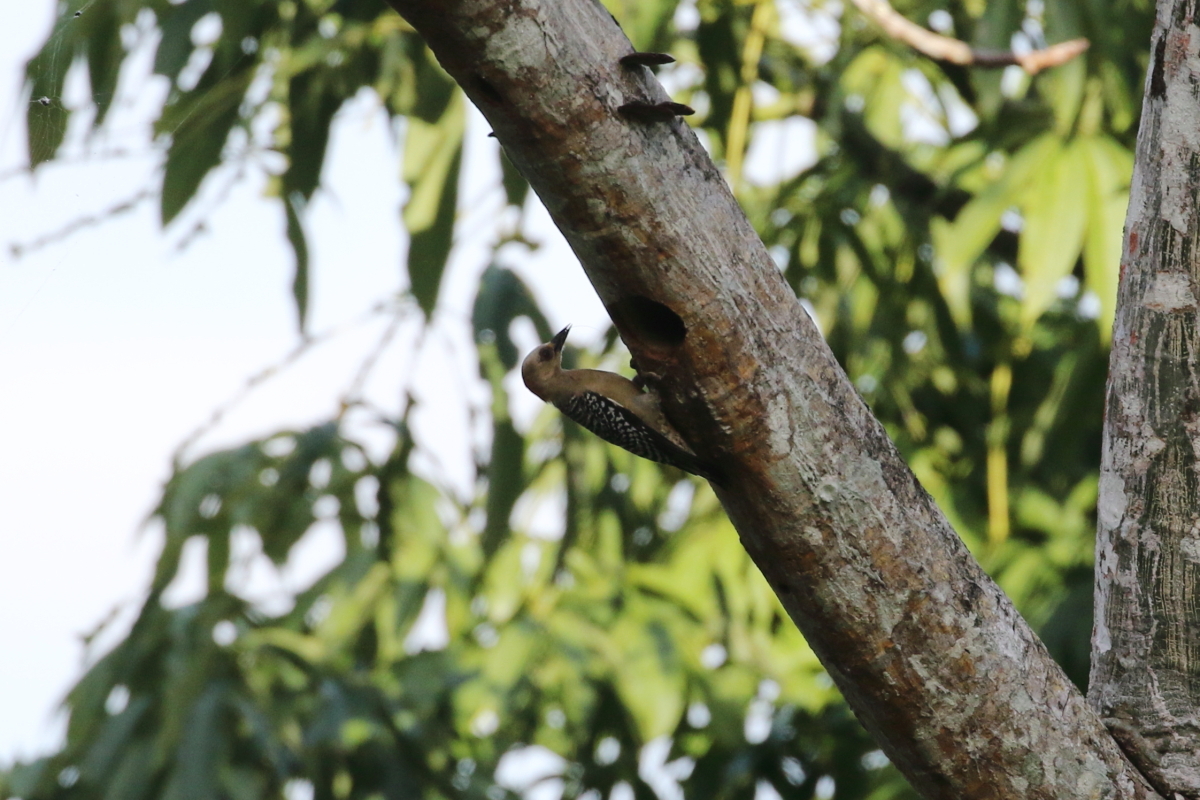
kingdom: Animalia
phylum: Chordata
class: Aves
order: Piciformes
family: Picidae
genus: Melanerpes
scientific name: Melanerpes rubricapillus
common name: Red-crowned woodpecker
